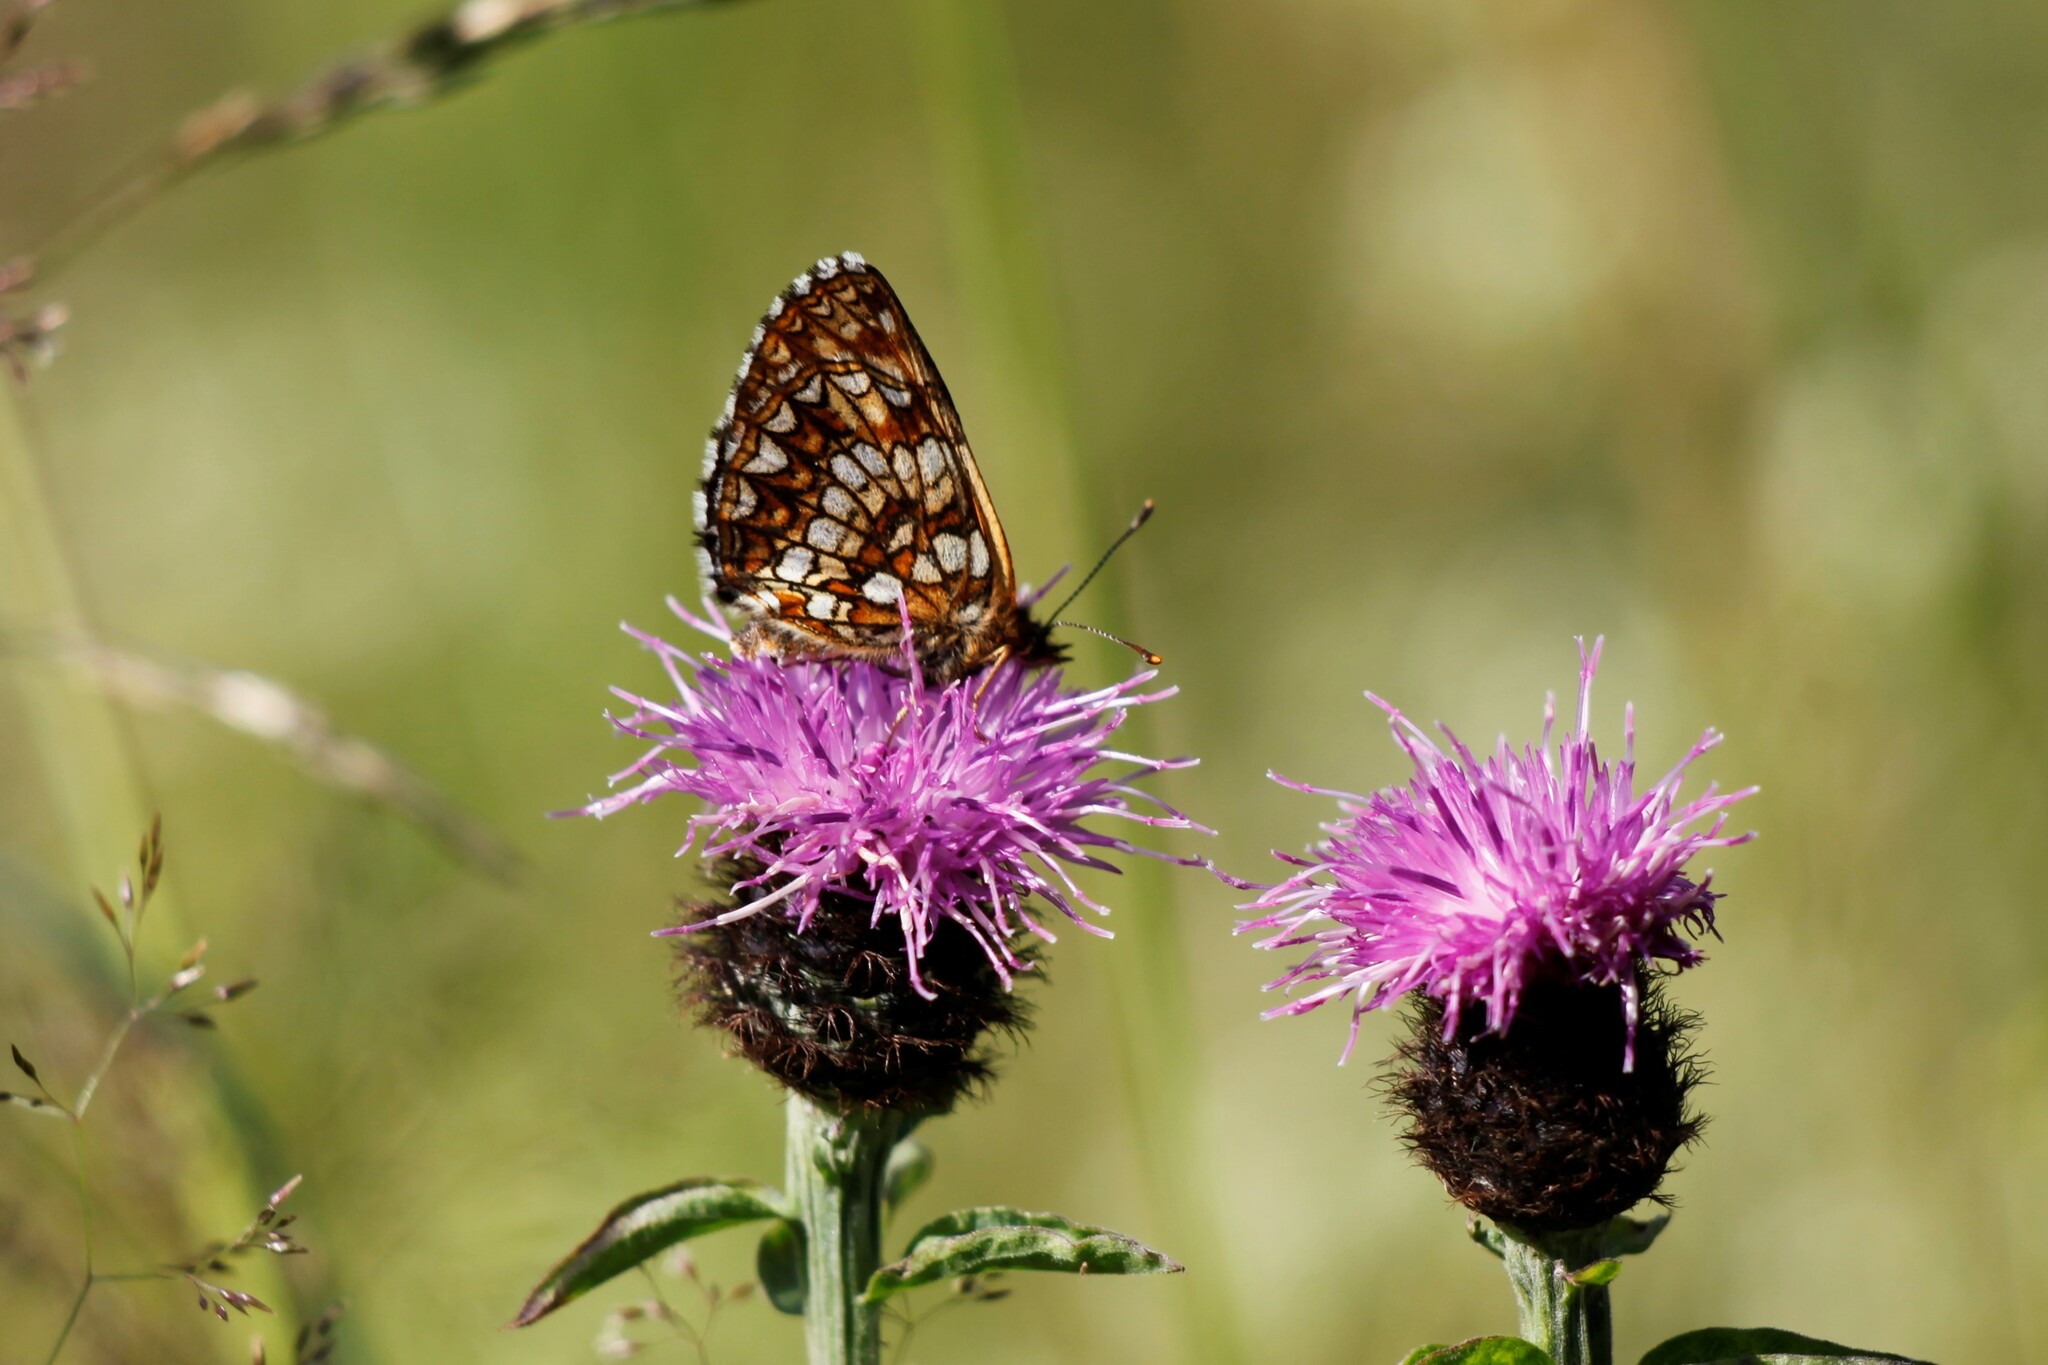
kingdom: Animalia
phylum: Arthropoda
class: Insecta
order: Lepidoptera
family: Nymphalidae
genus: Melitaea
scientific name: Melitaea diamina
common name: False heath fritillary
